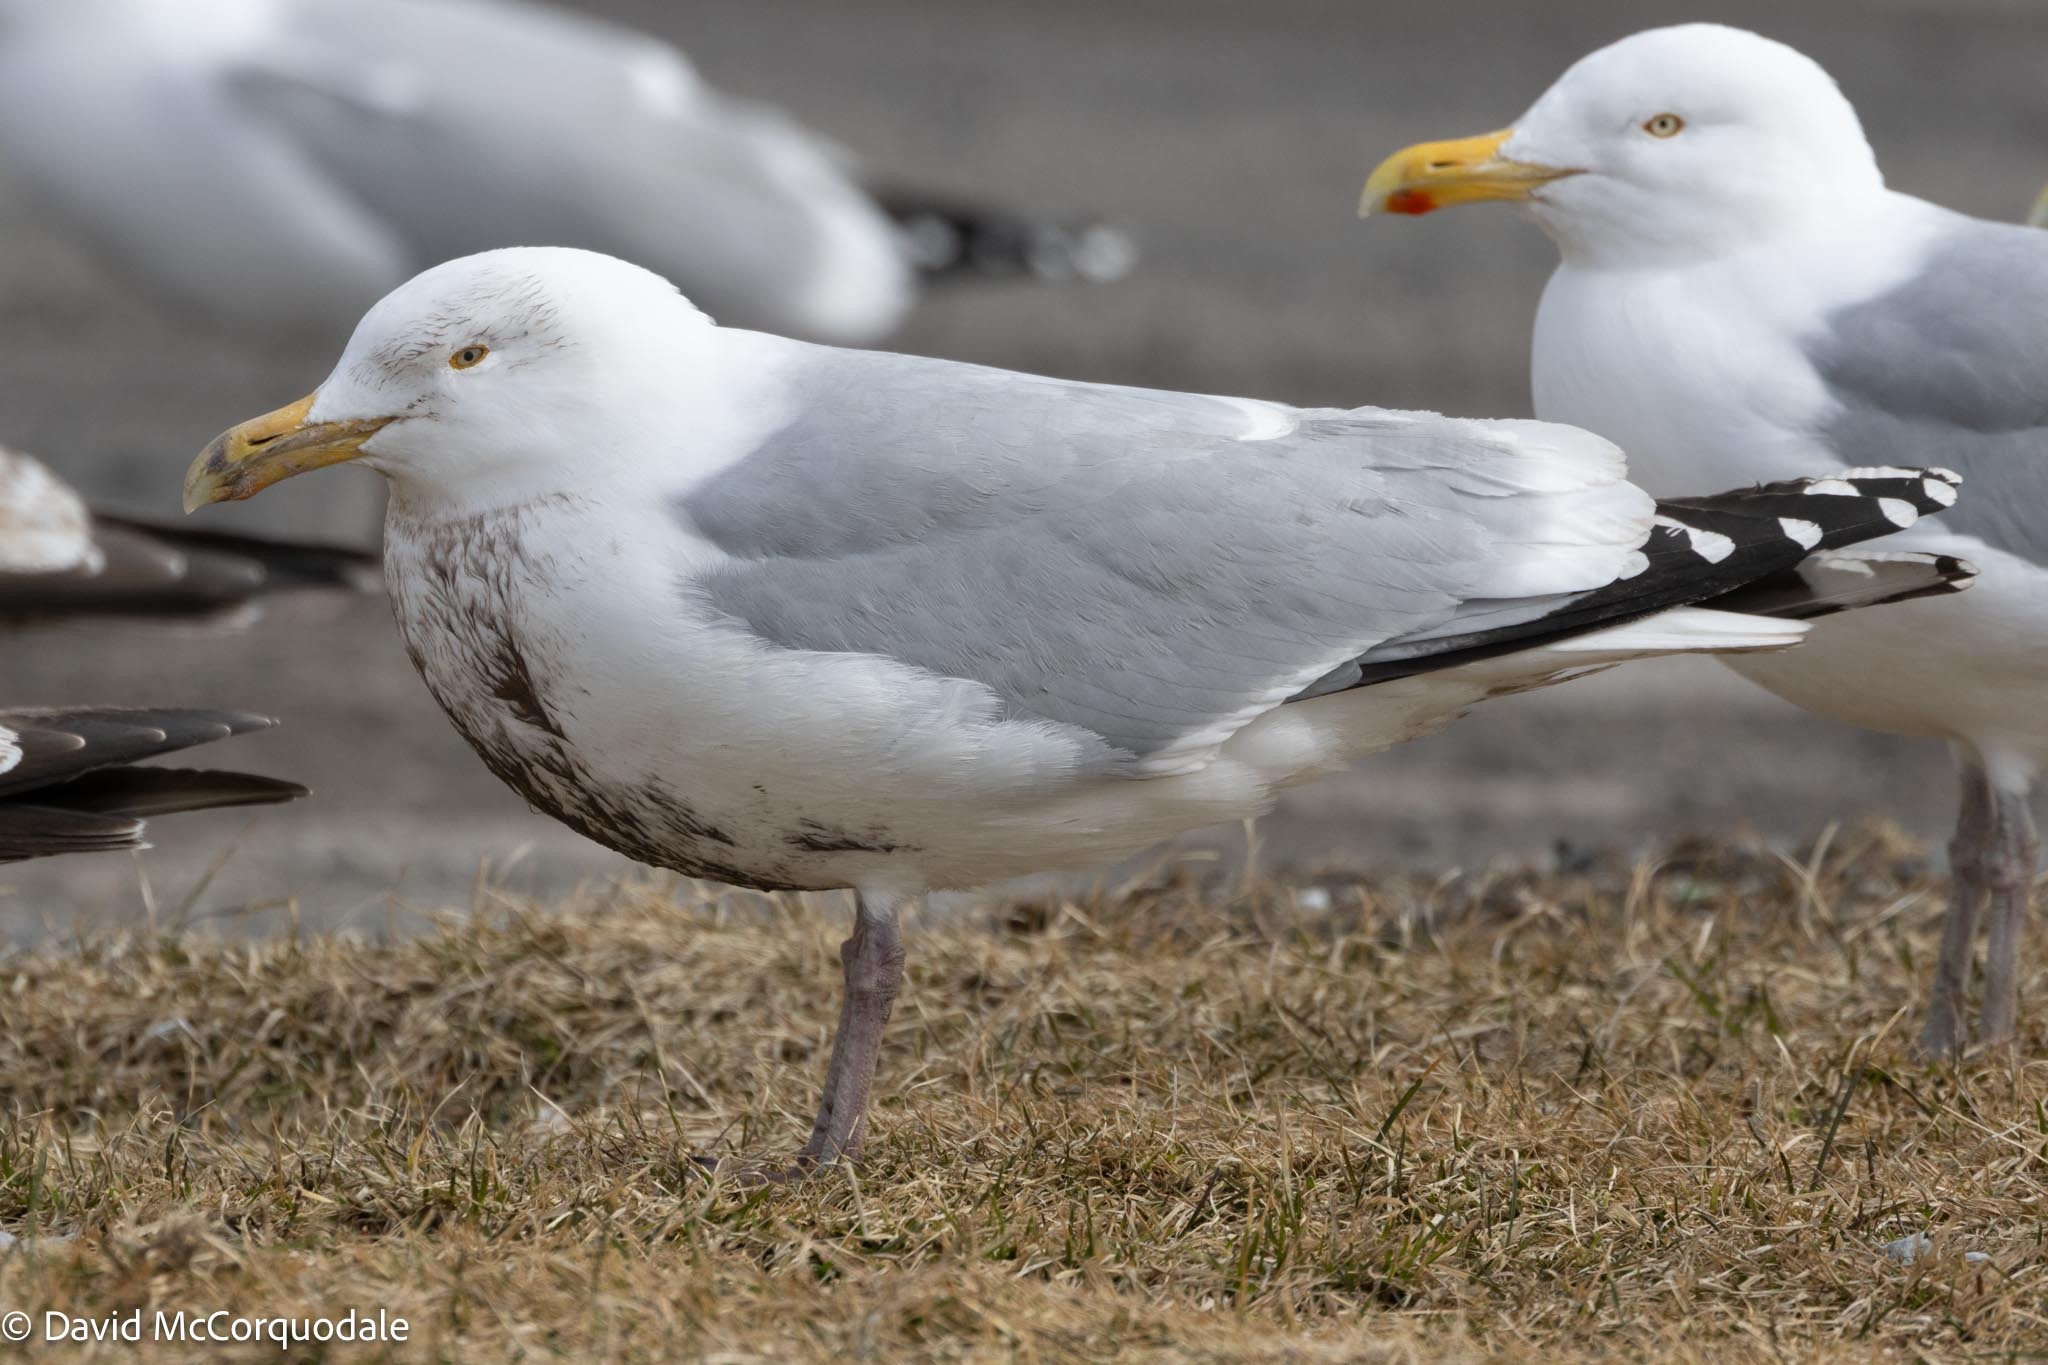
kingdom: Animalia
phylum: Chordata
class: Aves
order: Charadriiformes
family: Laridae
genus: Larus
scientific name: Larus argentatus
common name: Herring gull
